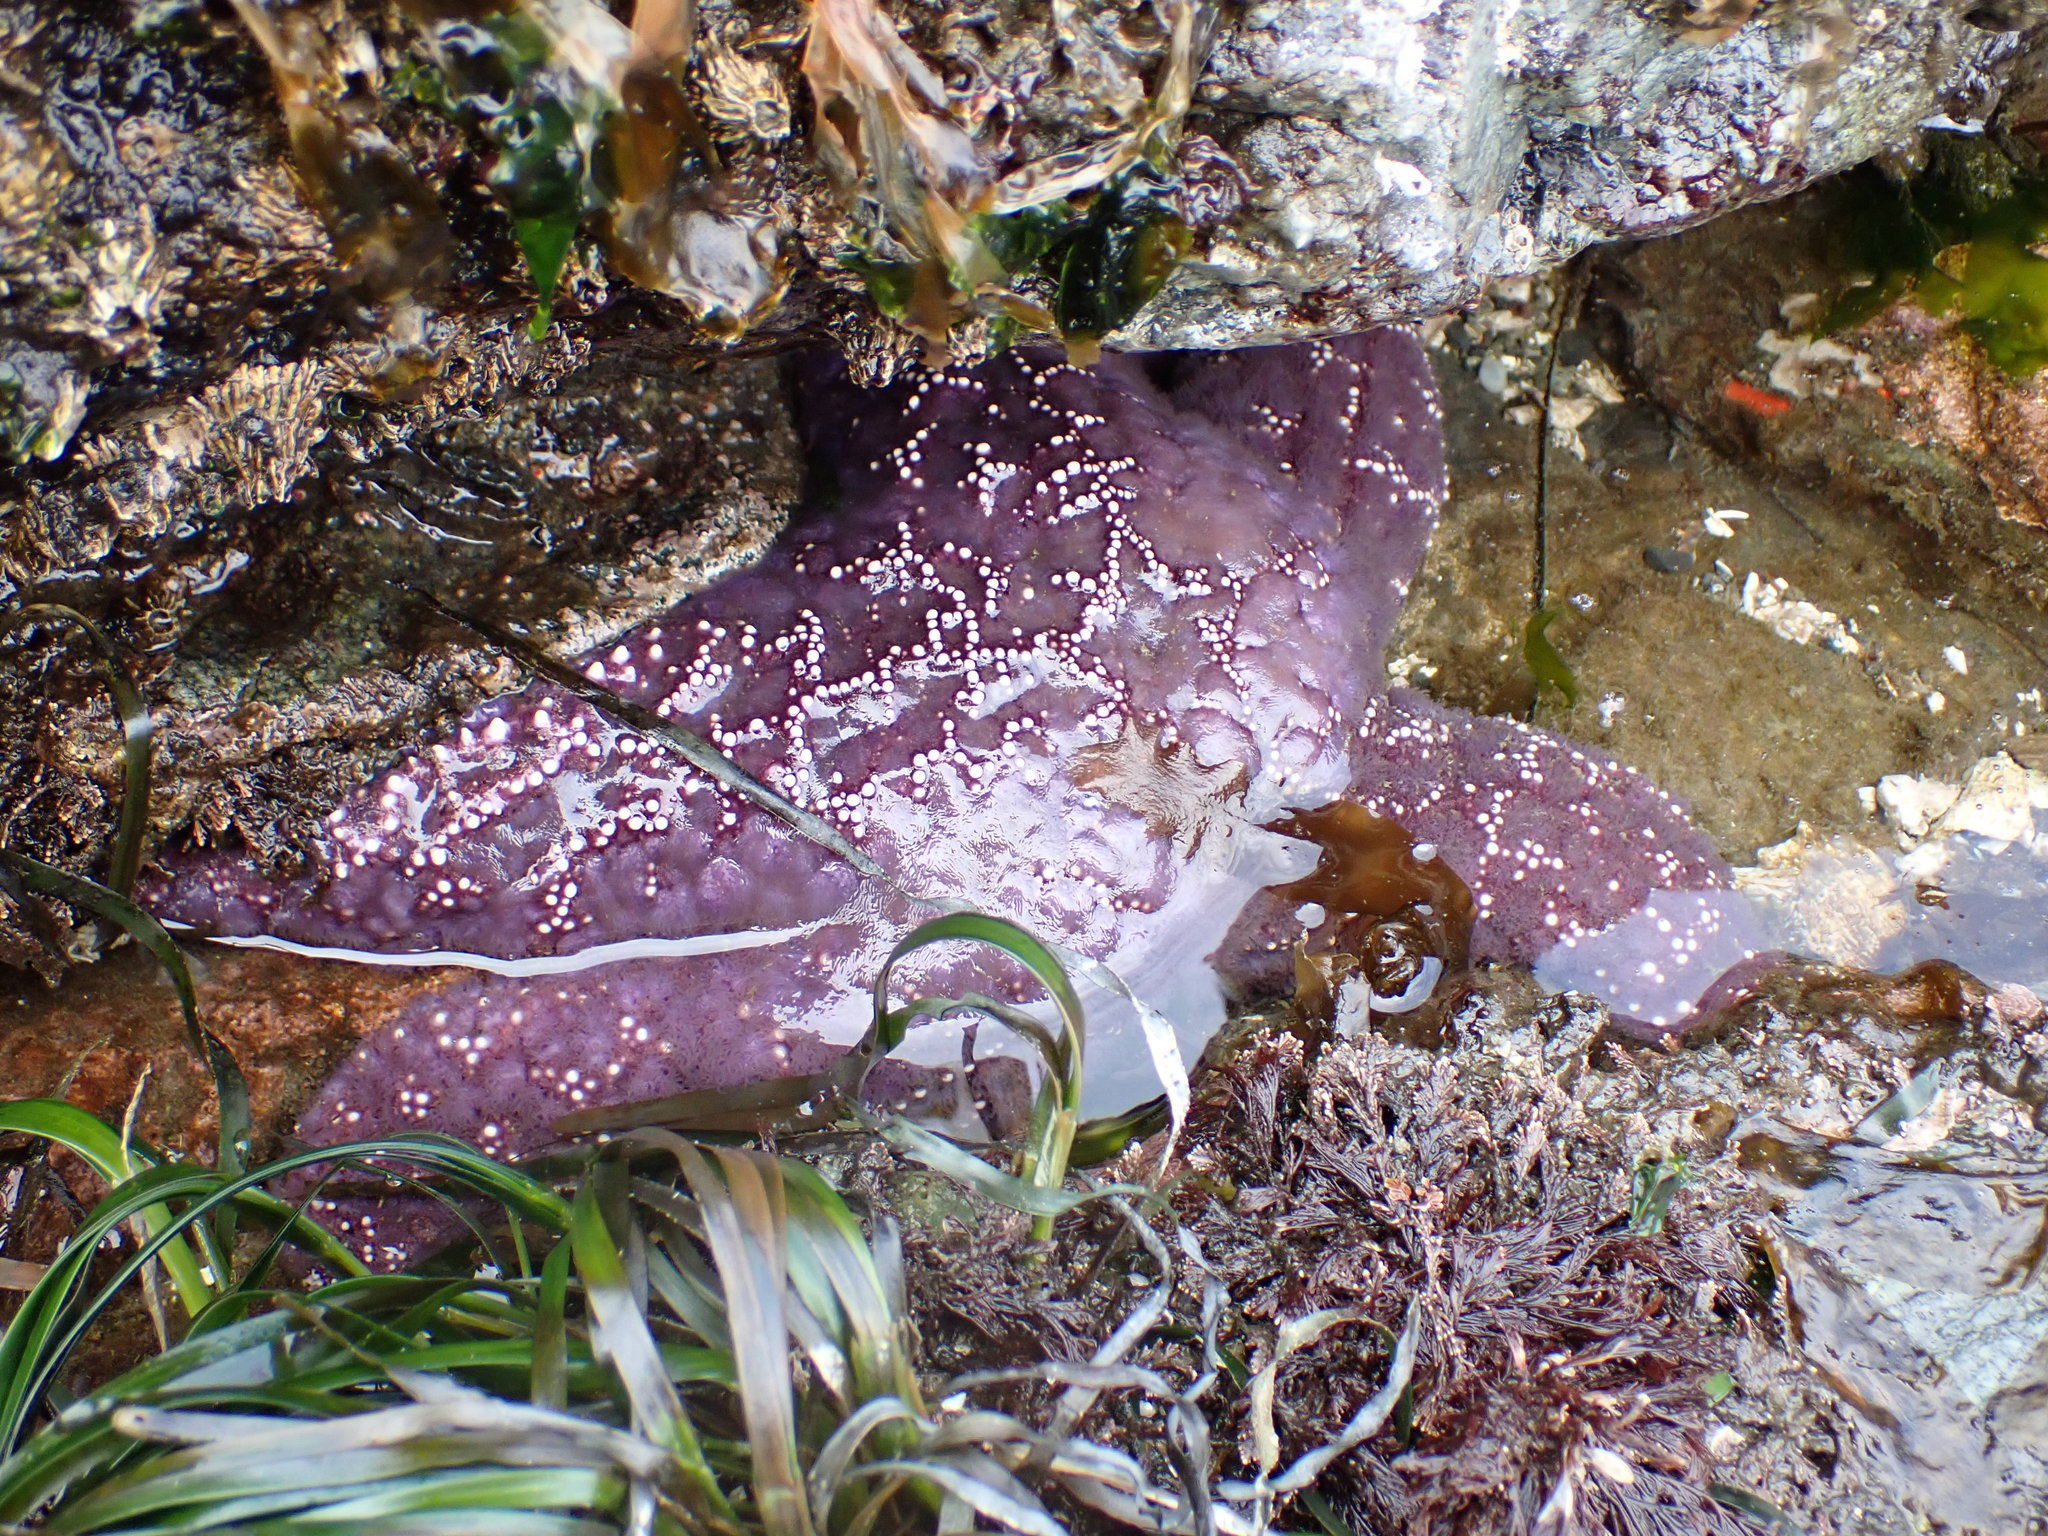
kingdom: Animalia
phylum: Echinodermata
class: Asteroidea
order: Forcipulatida
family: Asteriidae
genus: Pisaster
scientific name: Pisaster ochraceus
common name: Ochre stars
